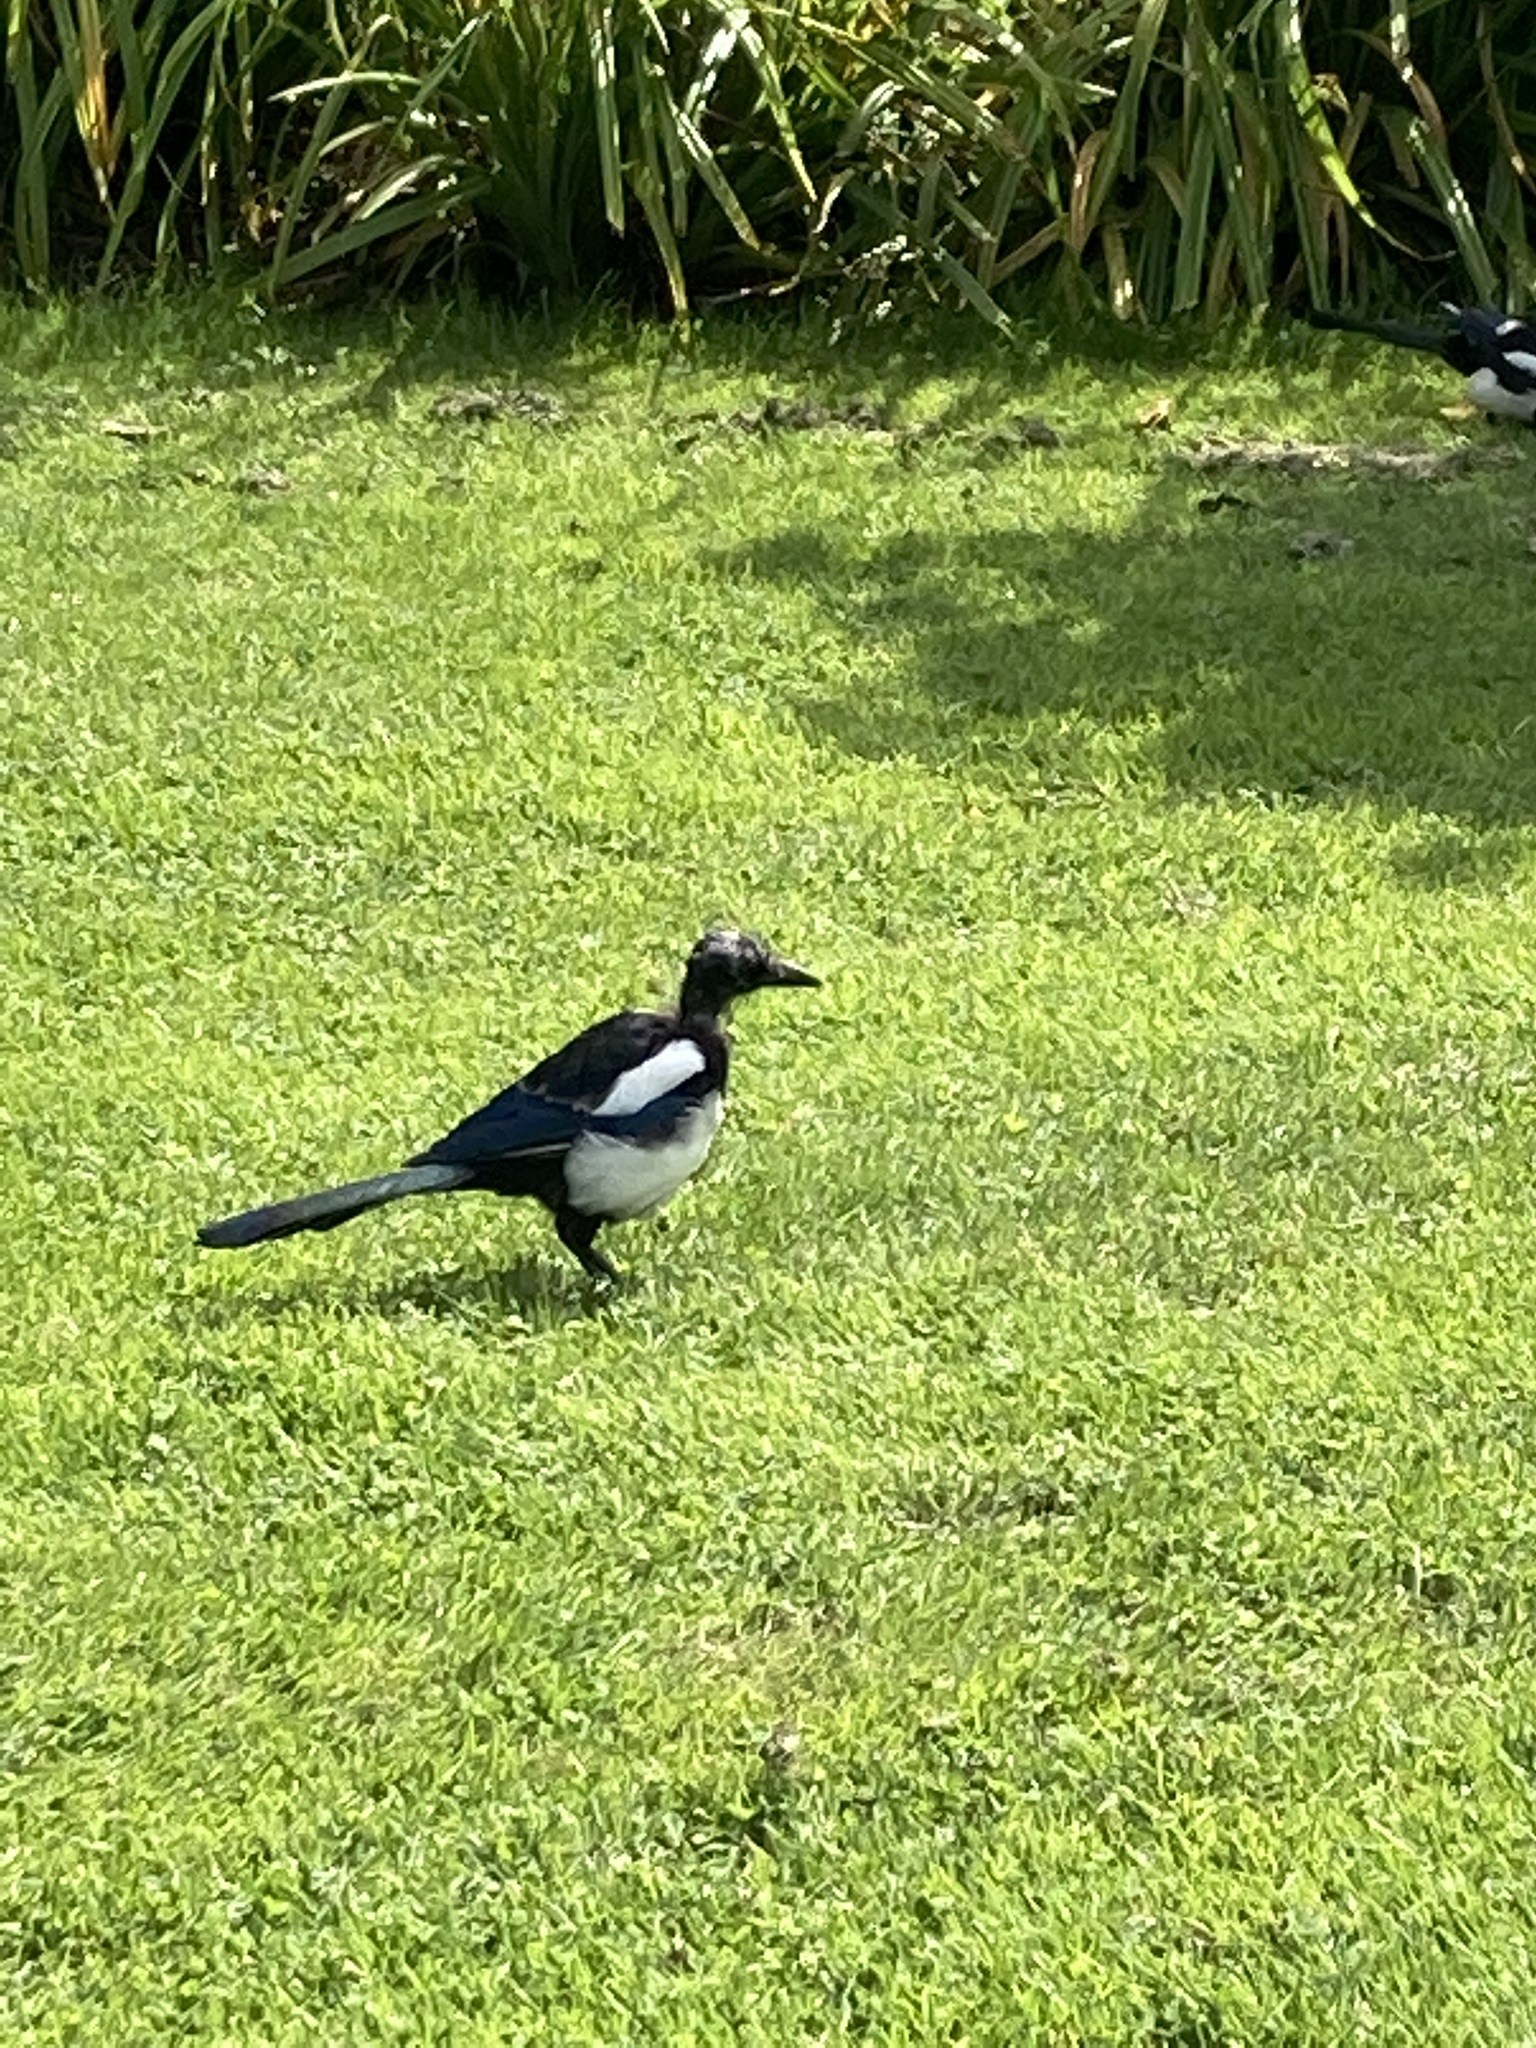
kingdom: Animalia
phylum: Chordata
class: Aves
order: Passeriformes
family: Corvidae
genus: Pica
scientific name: Pica pica
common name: Eurasian magpie
